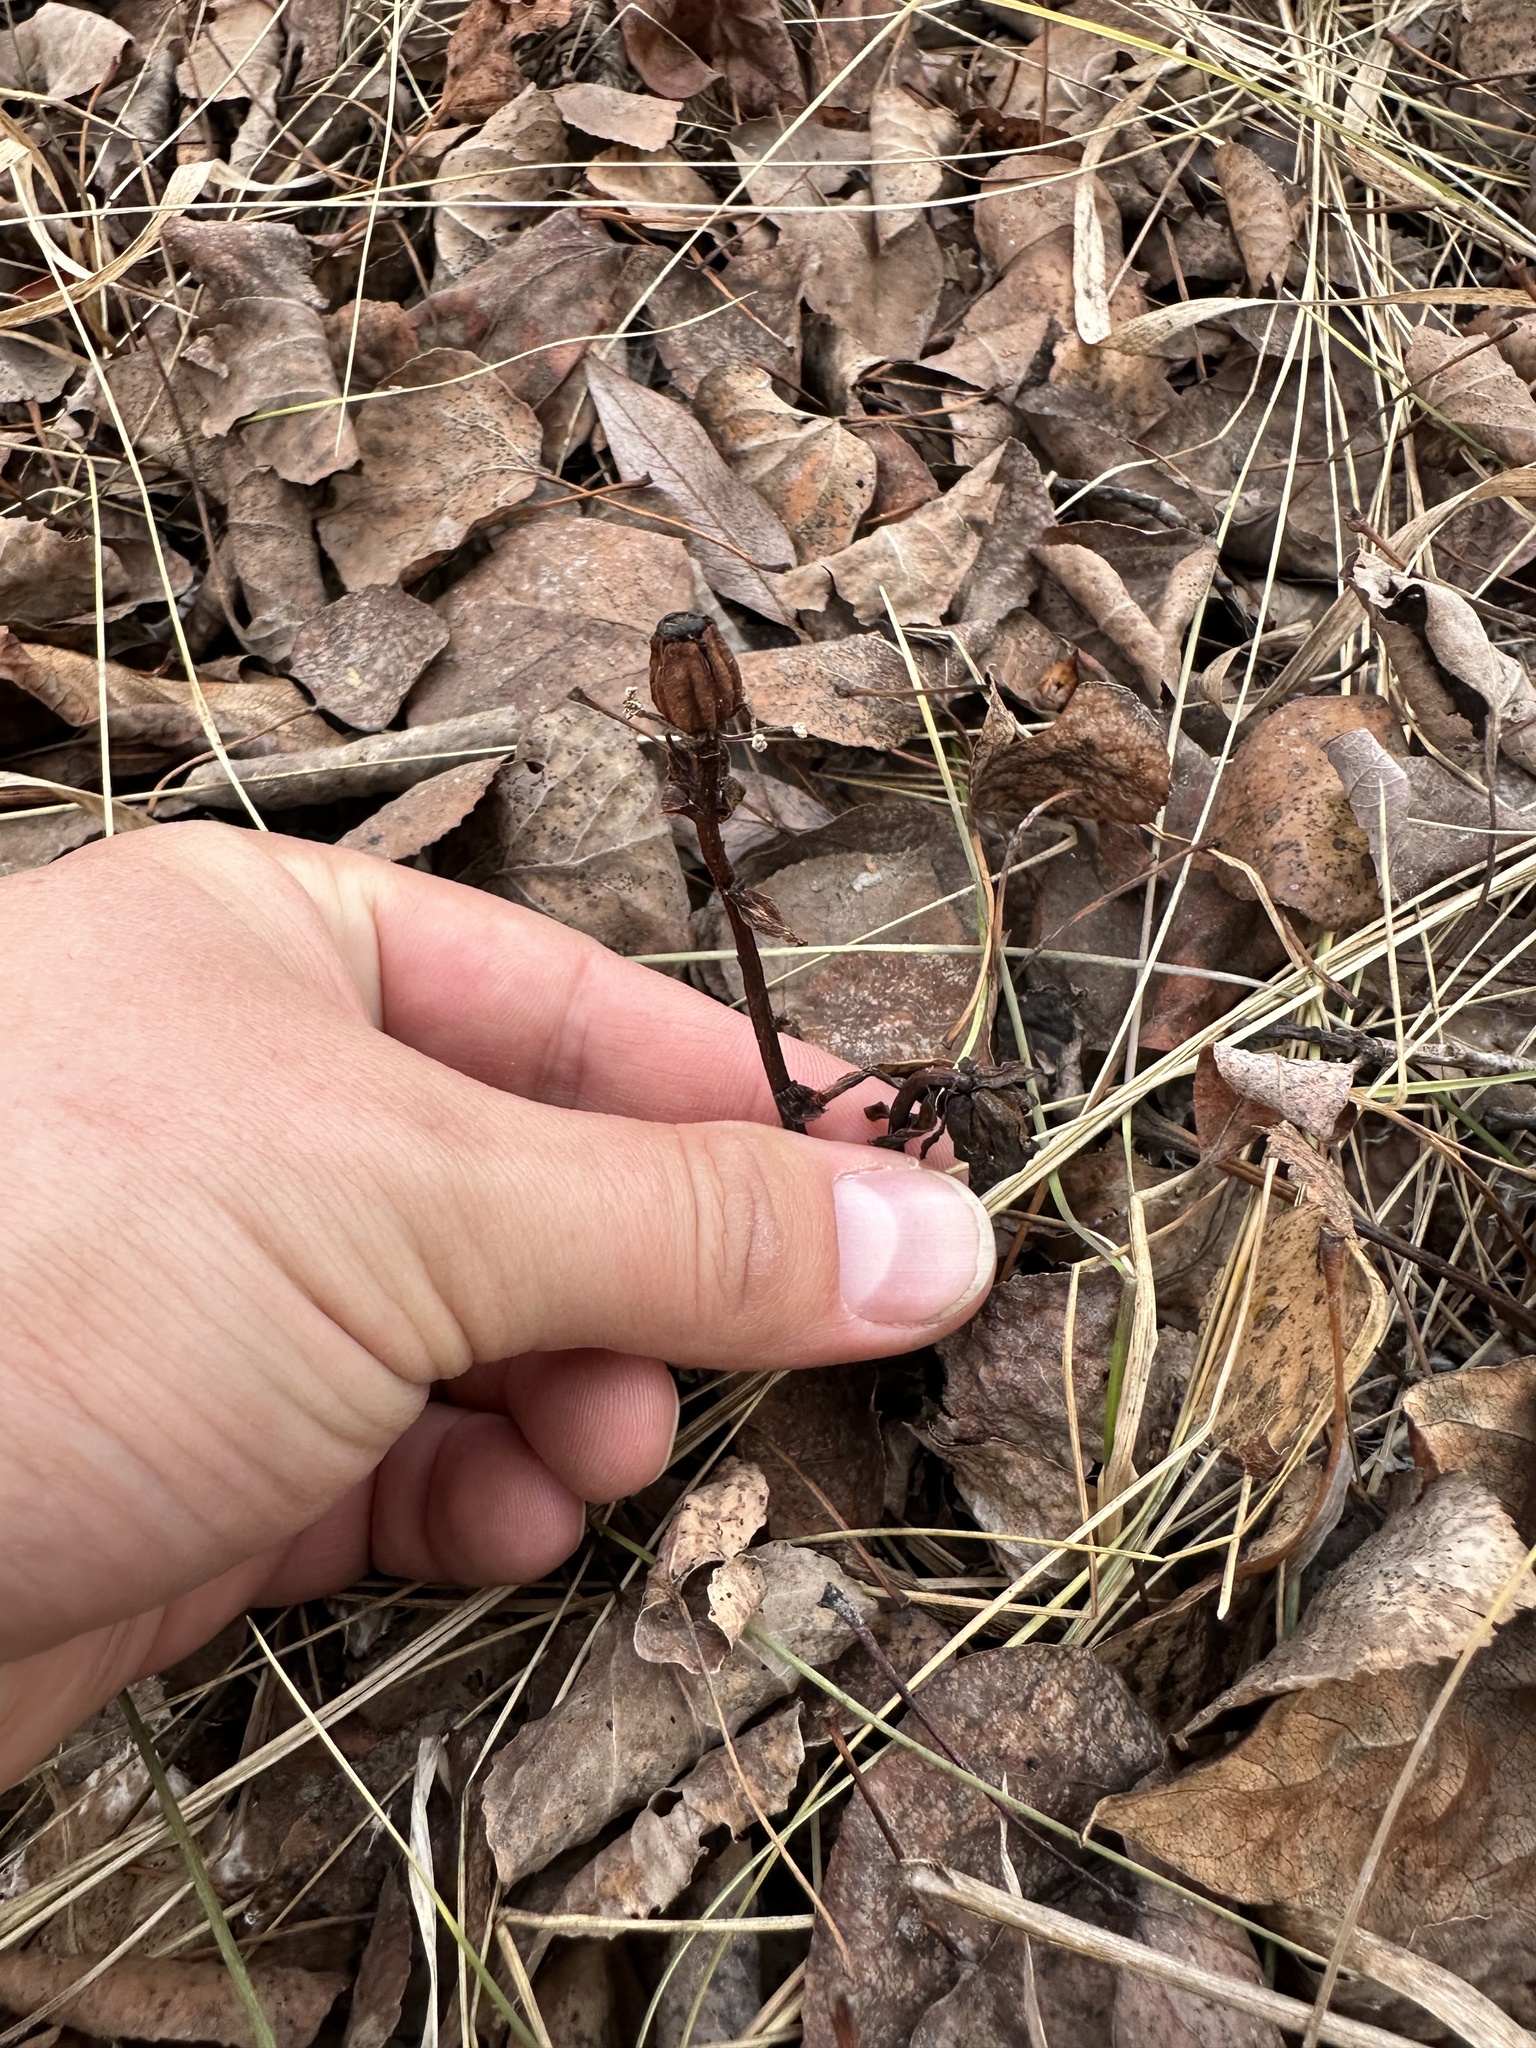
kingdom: Plantae
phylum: Tracheophyta
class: Magnoliopsida
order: Ericales
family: Ericaceae
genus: Monotropa
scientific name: Monotropa uniflora
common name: Convulsion root
